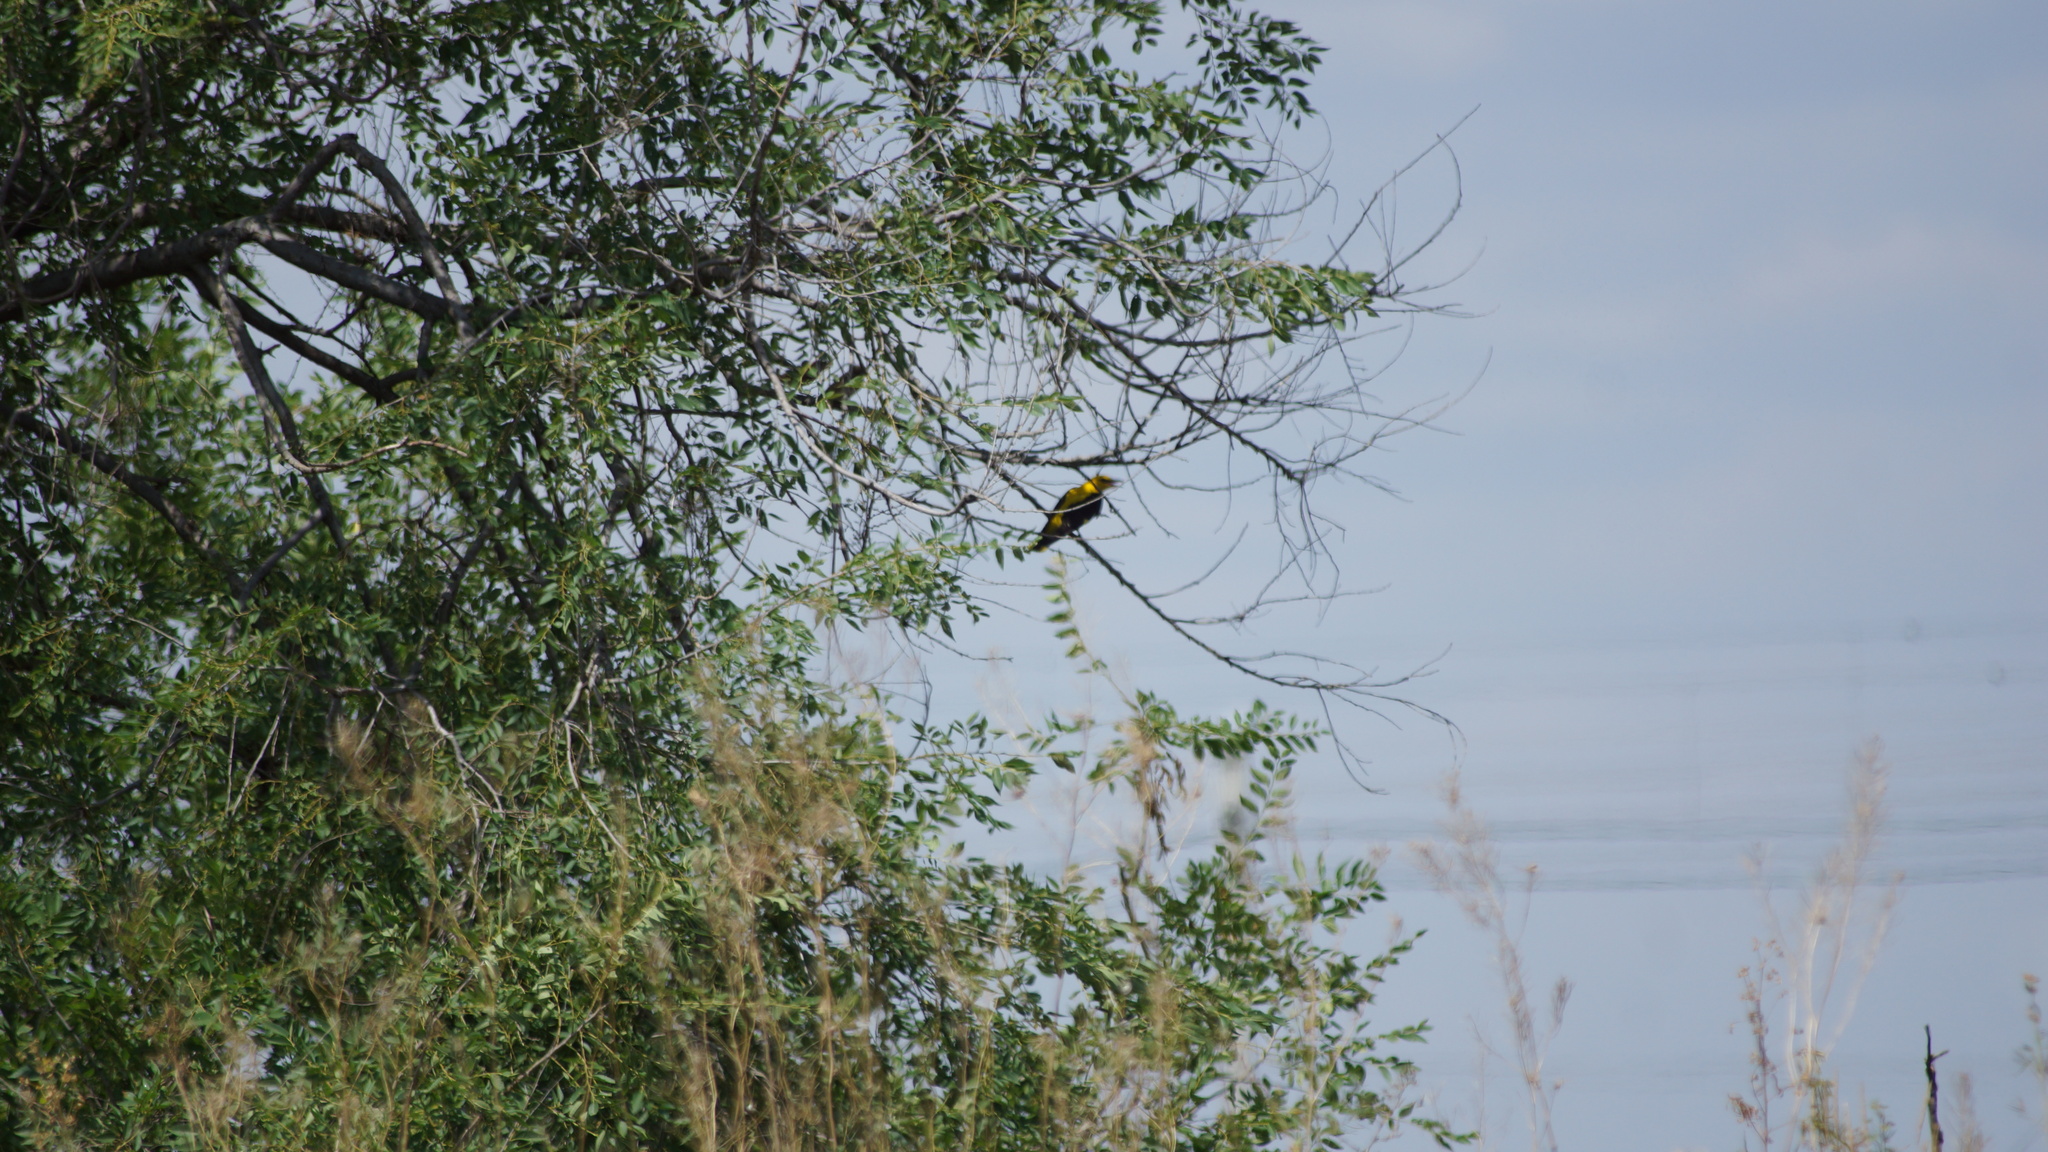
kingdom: Animalia
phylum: Chordata
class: Aves
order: Passeriformes
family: Oriolidae
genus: Oriolus
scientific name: Oriolus oriolus
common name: Eurasian golden oriole
